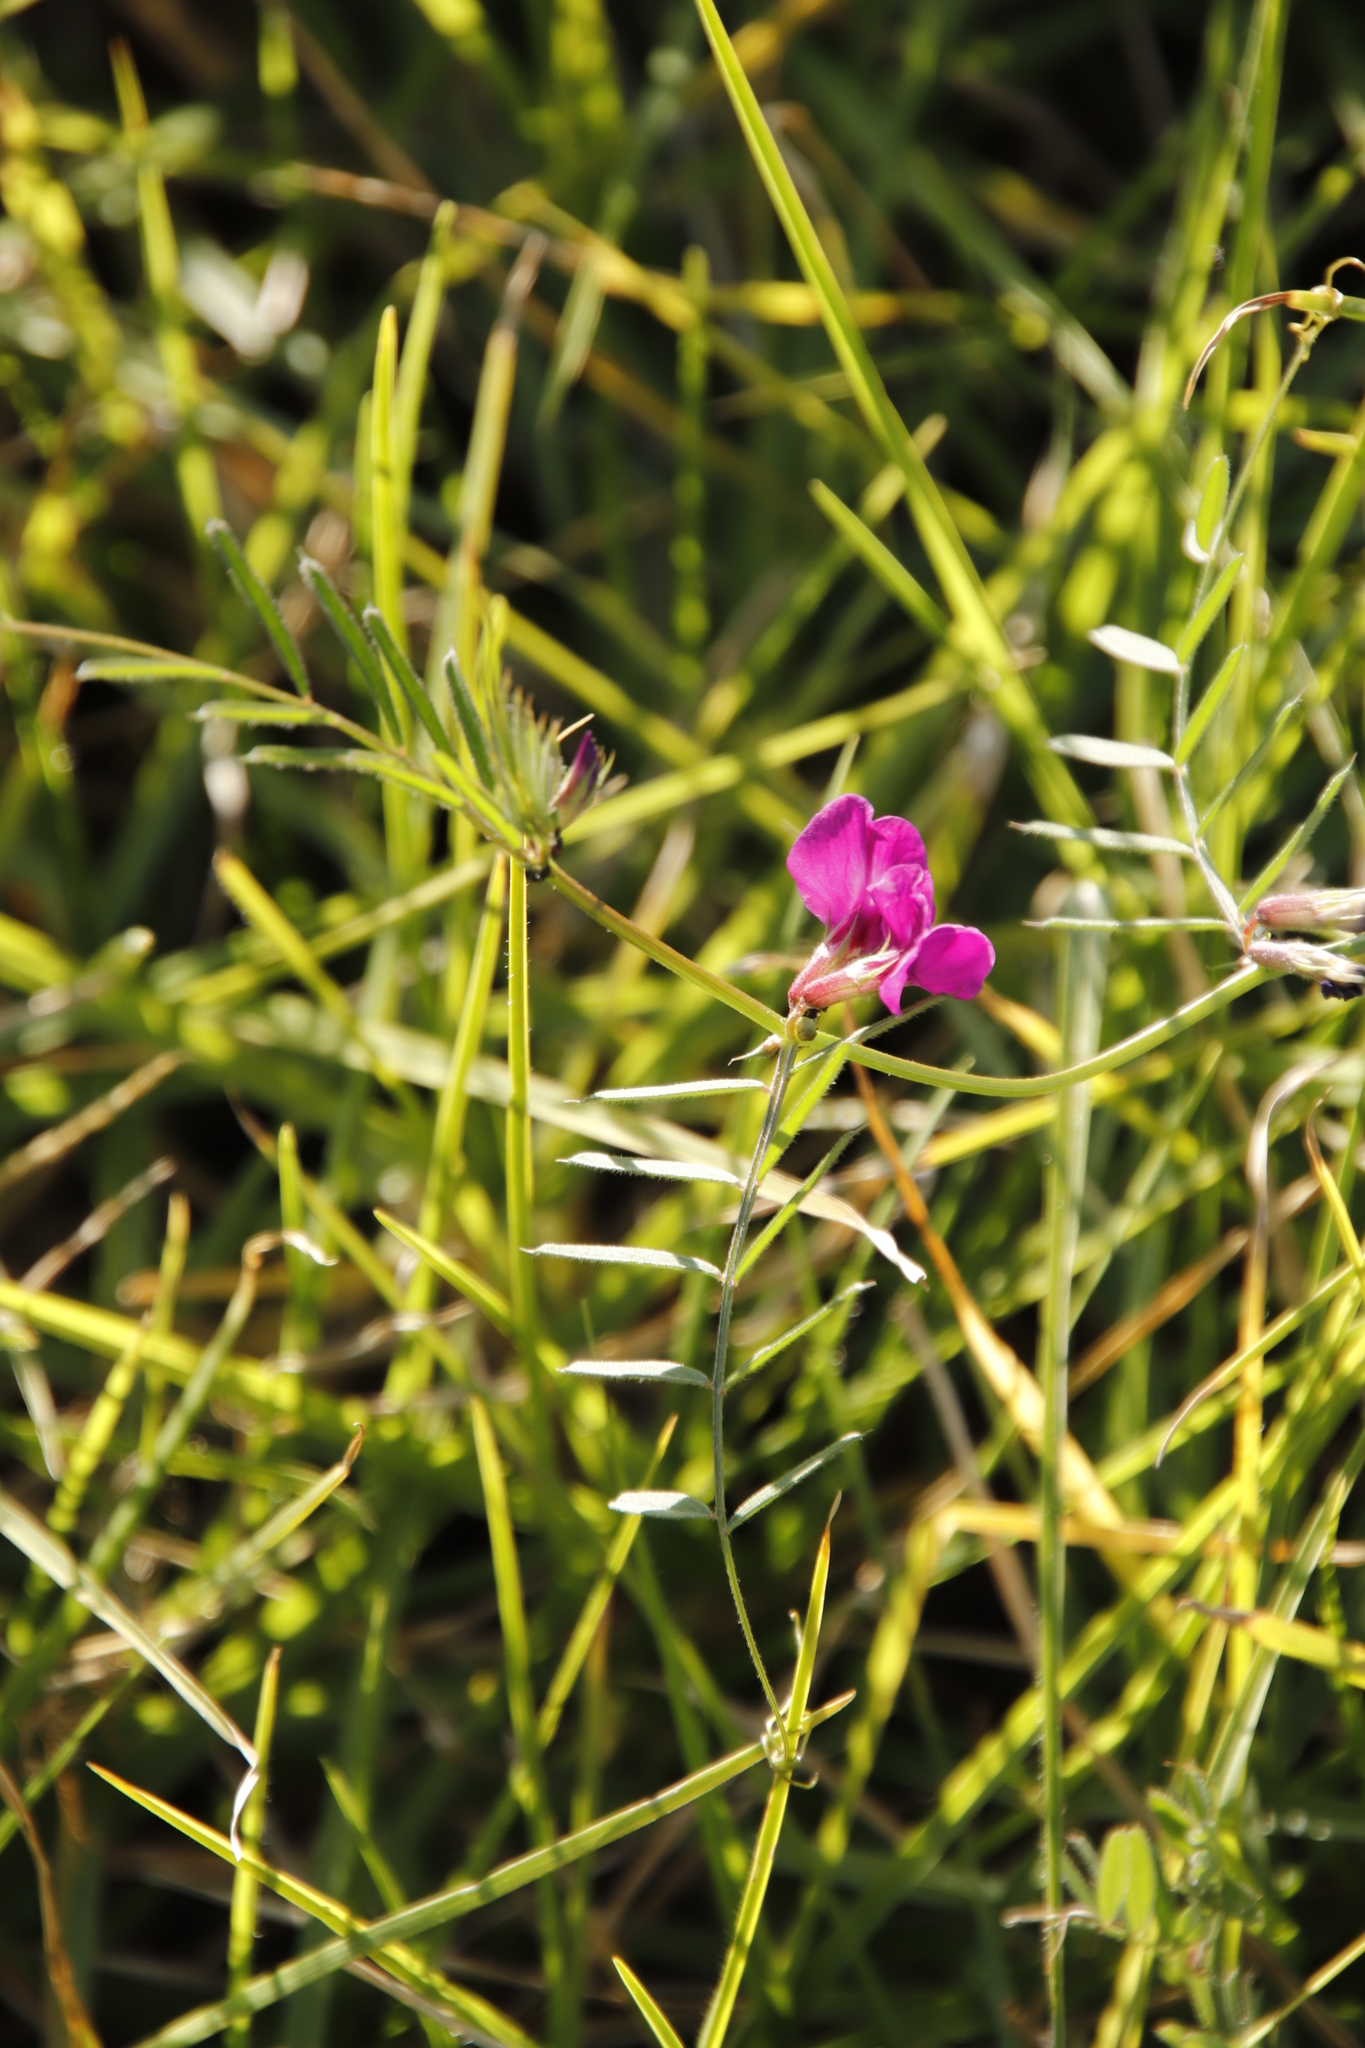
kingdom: Plantae
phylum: Tracheophyta
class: Magnoliopsida
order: Fabales
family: Fabaceae
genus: Vicia
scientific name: Vicia sativa
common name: Garden vetch
